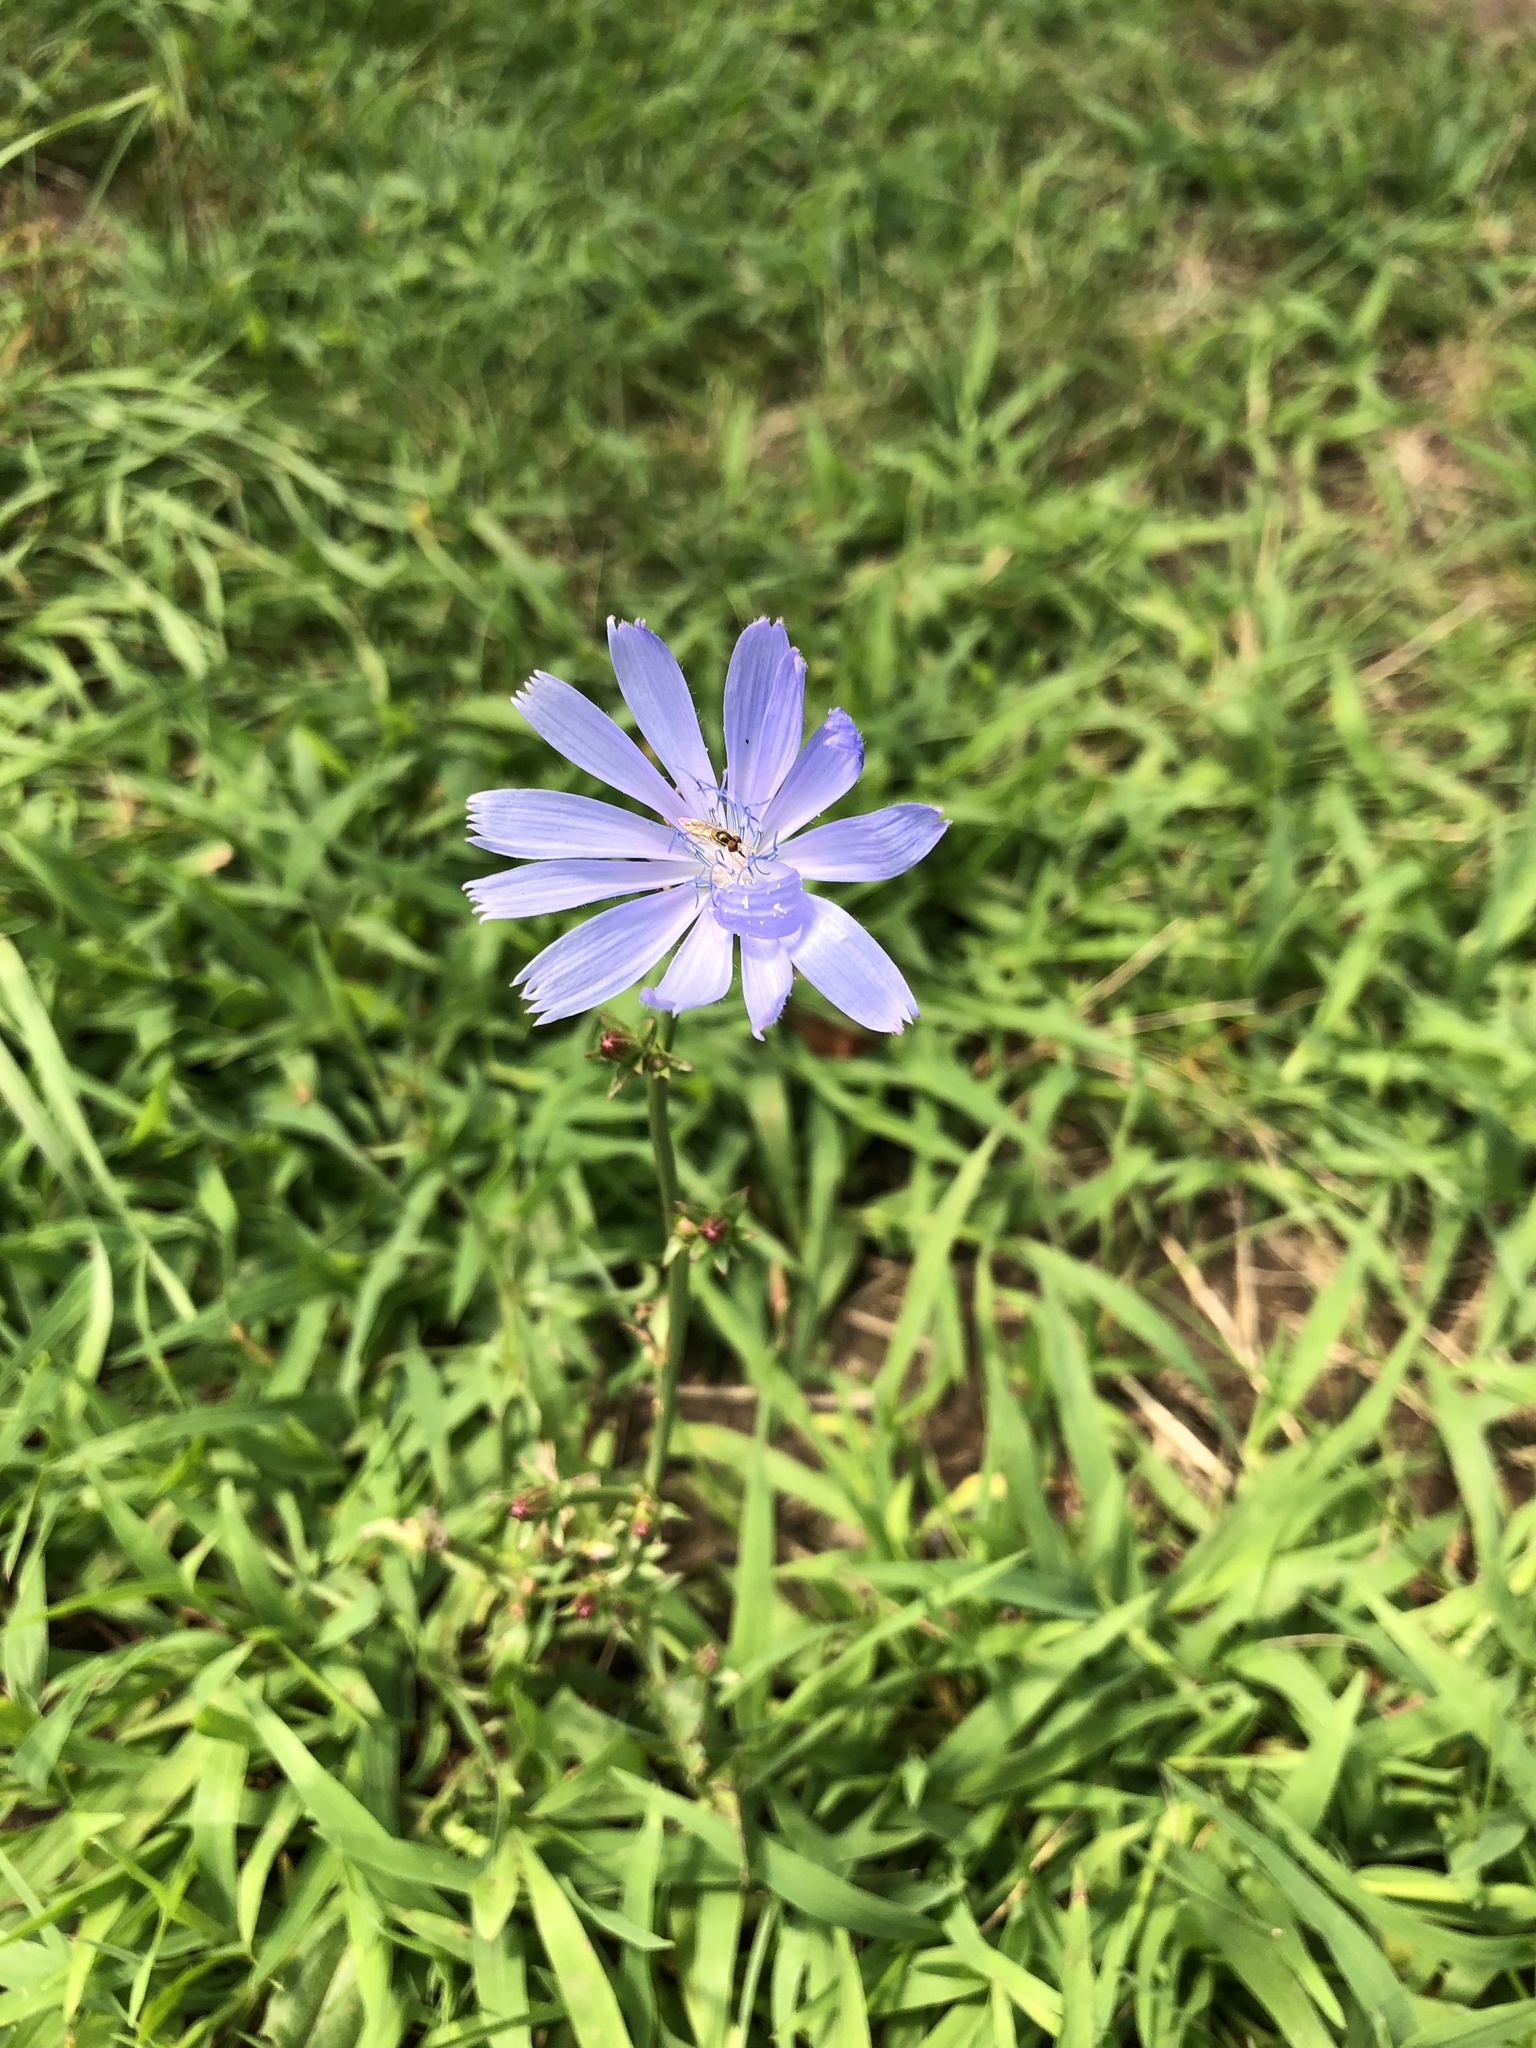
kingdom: Plantae
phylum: Tracheophyta
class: Magnoliopsida
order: Asterales
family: Asteraceae
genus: Cichorium
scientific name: Cichorium intybus
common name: Chicory
